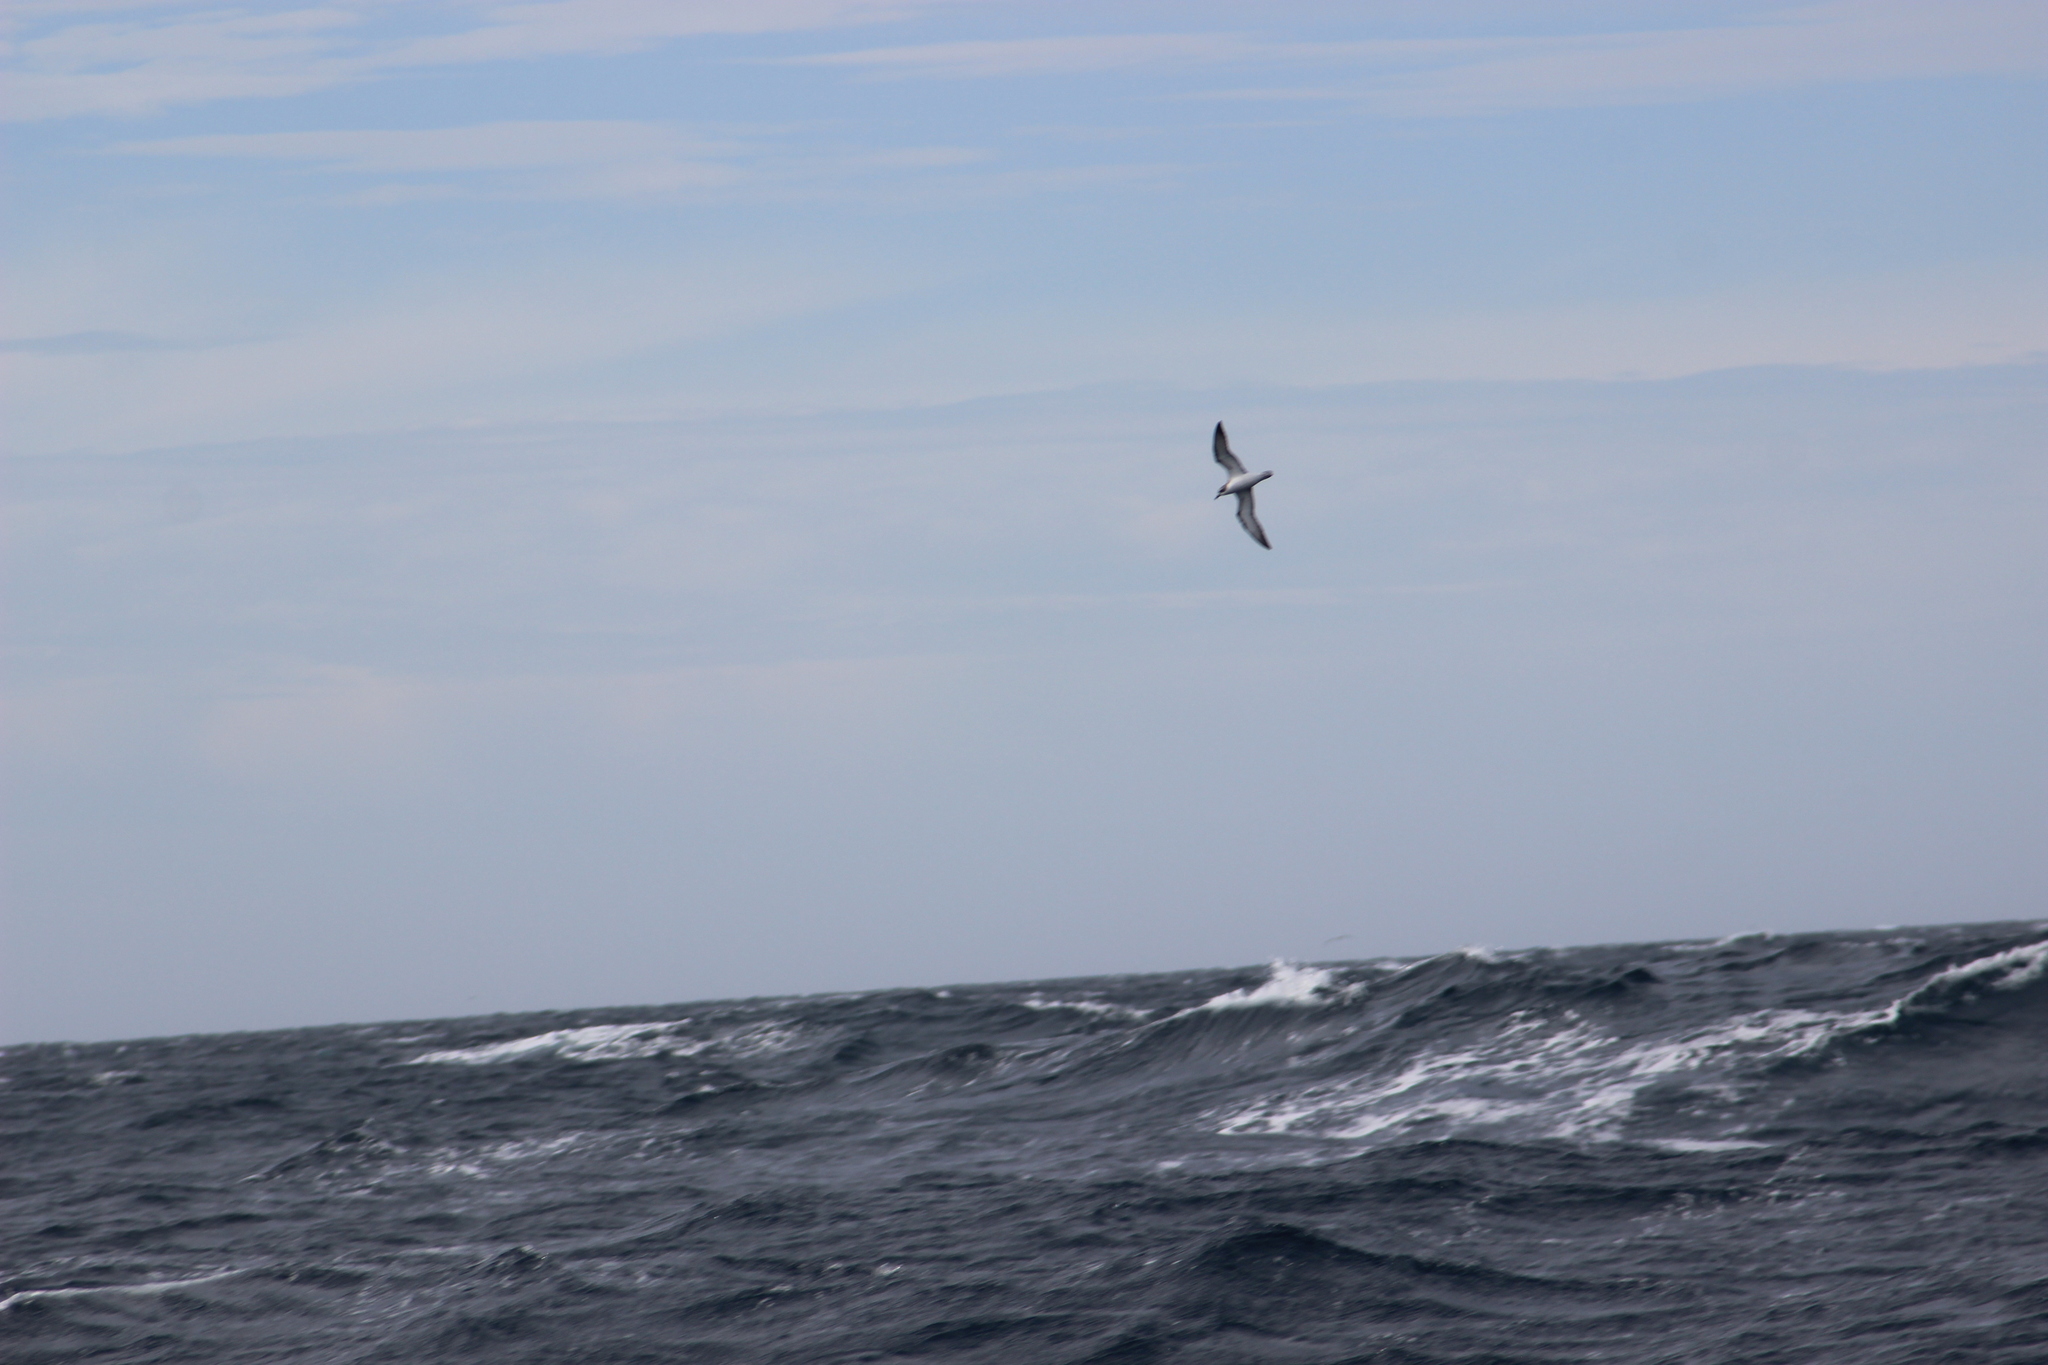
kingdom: Animalia
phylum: Chordata
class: Aves
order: Procellariiformes
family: Procellariidae
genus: Pterodroma
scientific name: Pterodroma cookii
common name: Cook's petrel
